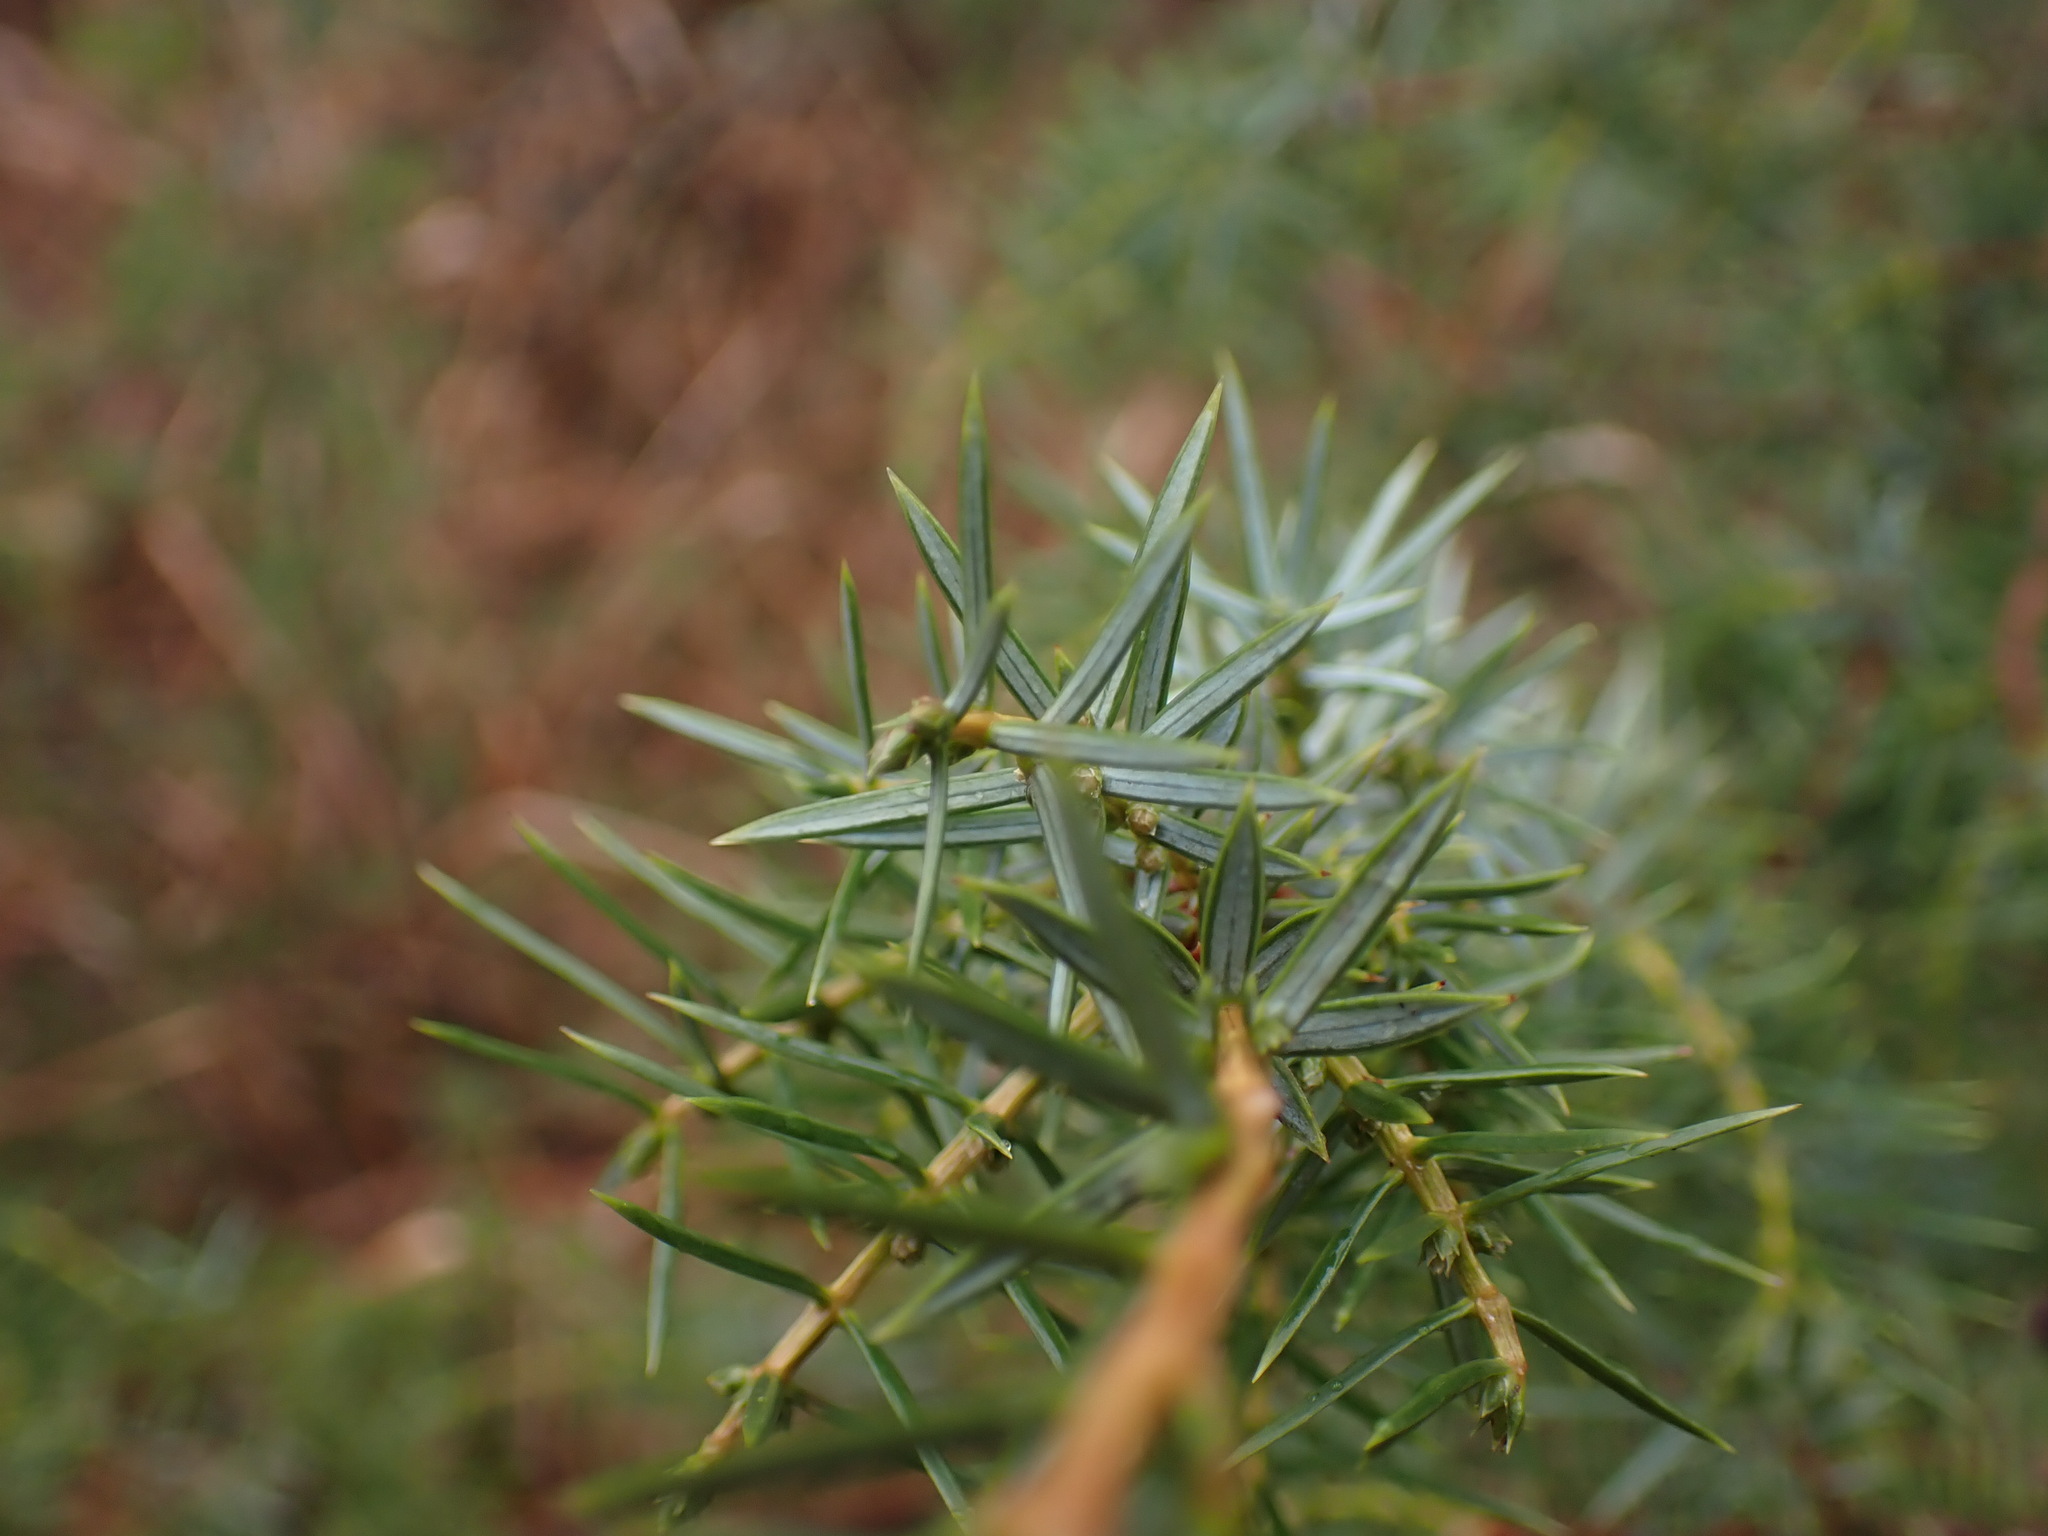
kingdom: Plantae
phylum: Tracheophyta
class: Pinopsida
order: Pinales
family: Cupressaceae
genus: Juniperus
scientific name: Juniperus oxycedrus
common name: Prickly juniper
